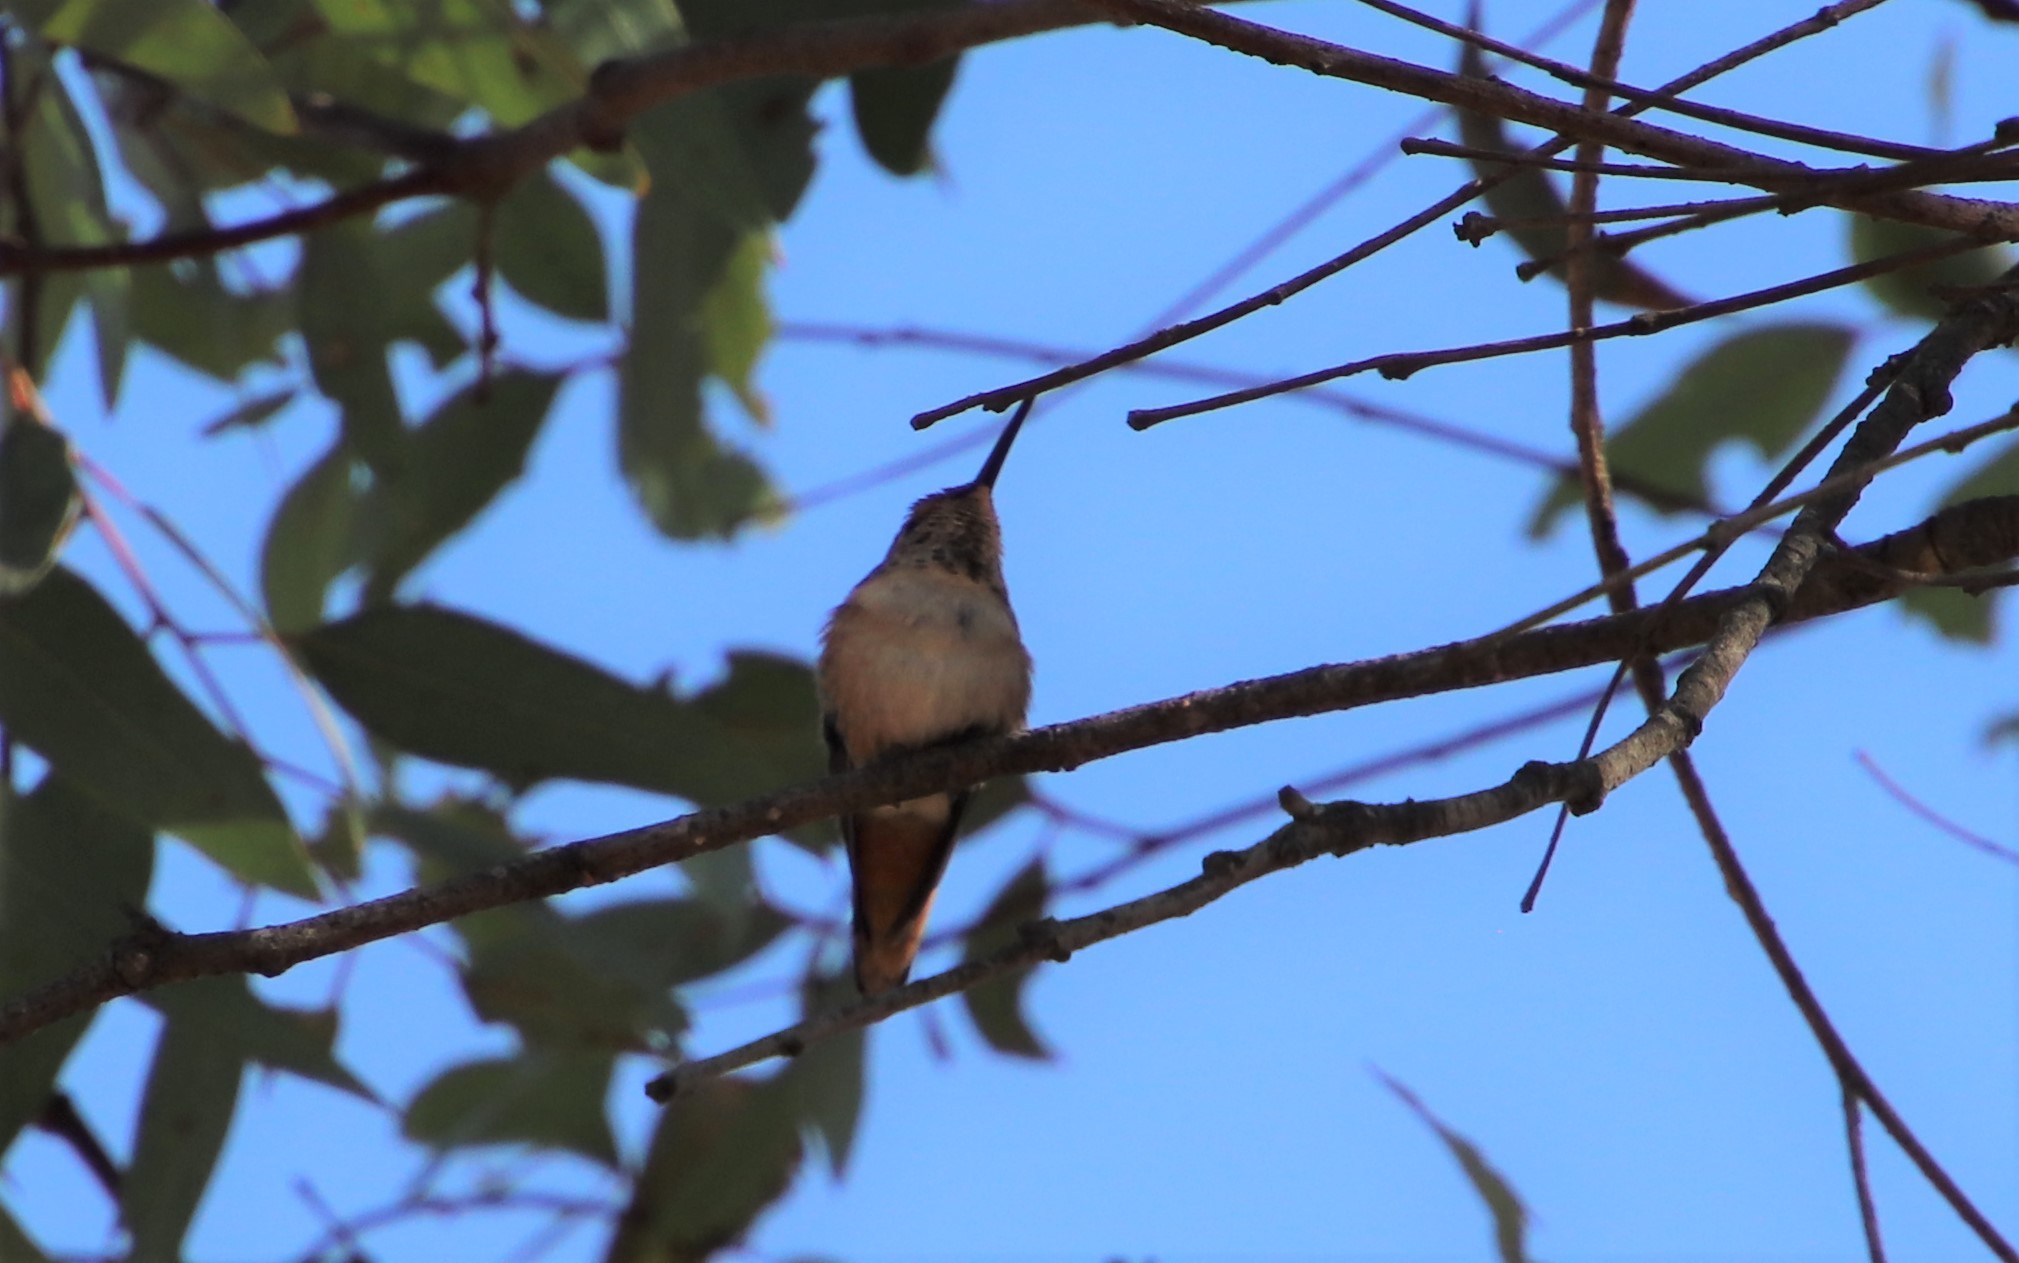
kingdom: Animalia
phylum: Chordata
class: Aves
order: Apodiformes
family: Trochilidae
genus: Selasphorus
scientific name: Selasphorus
